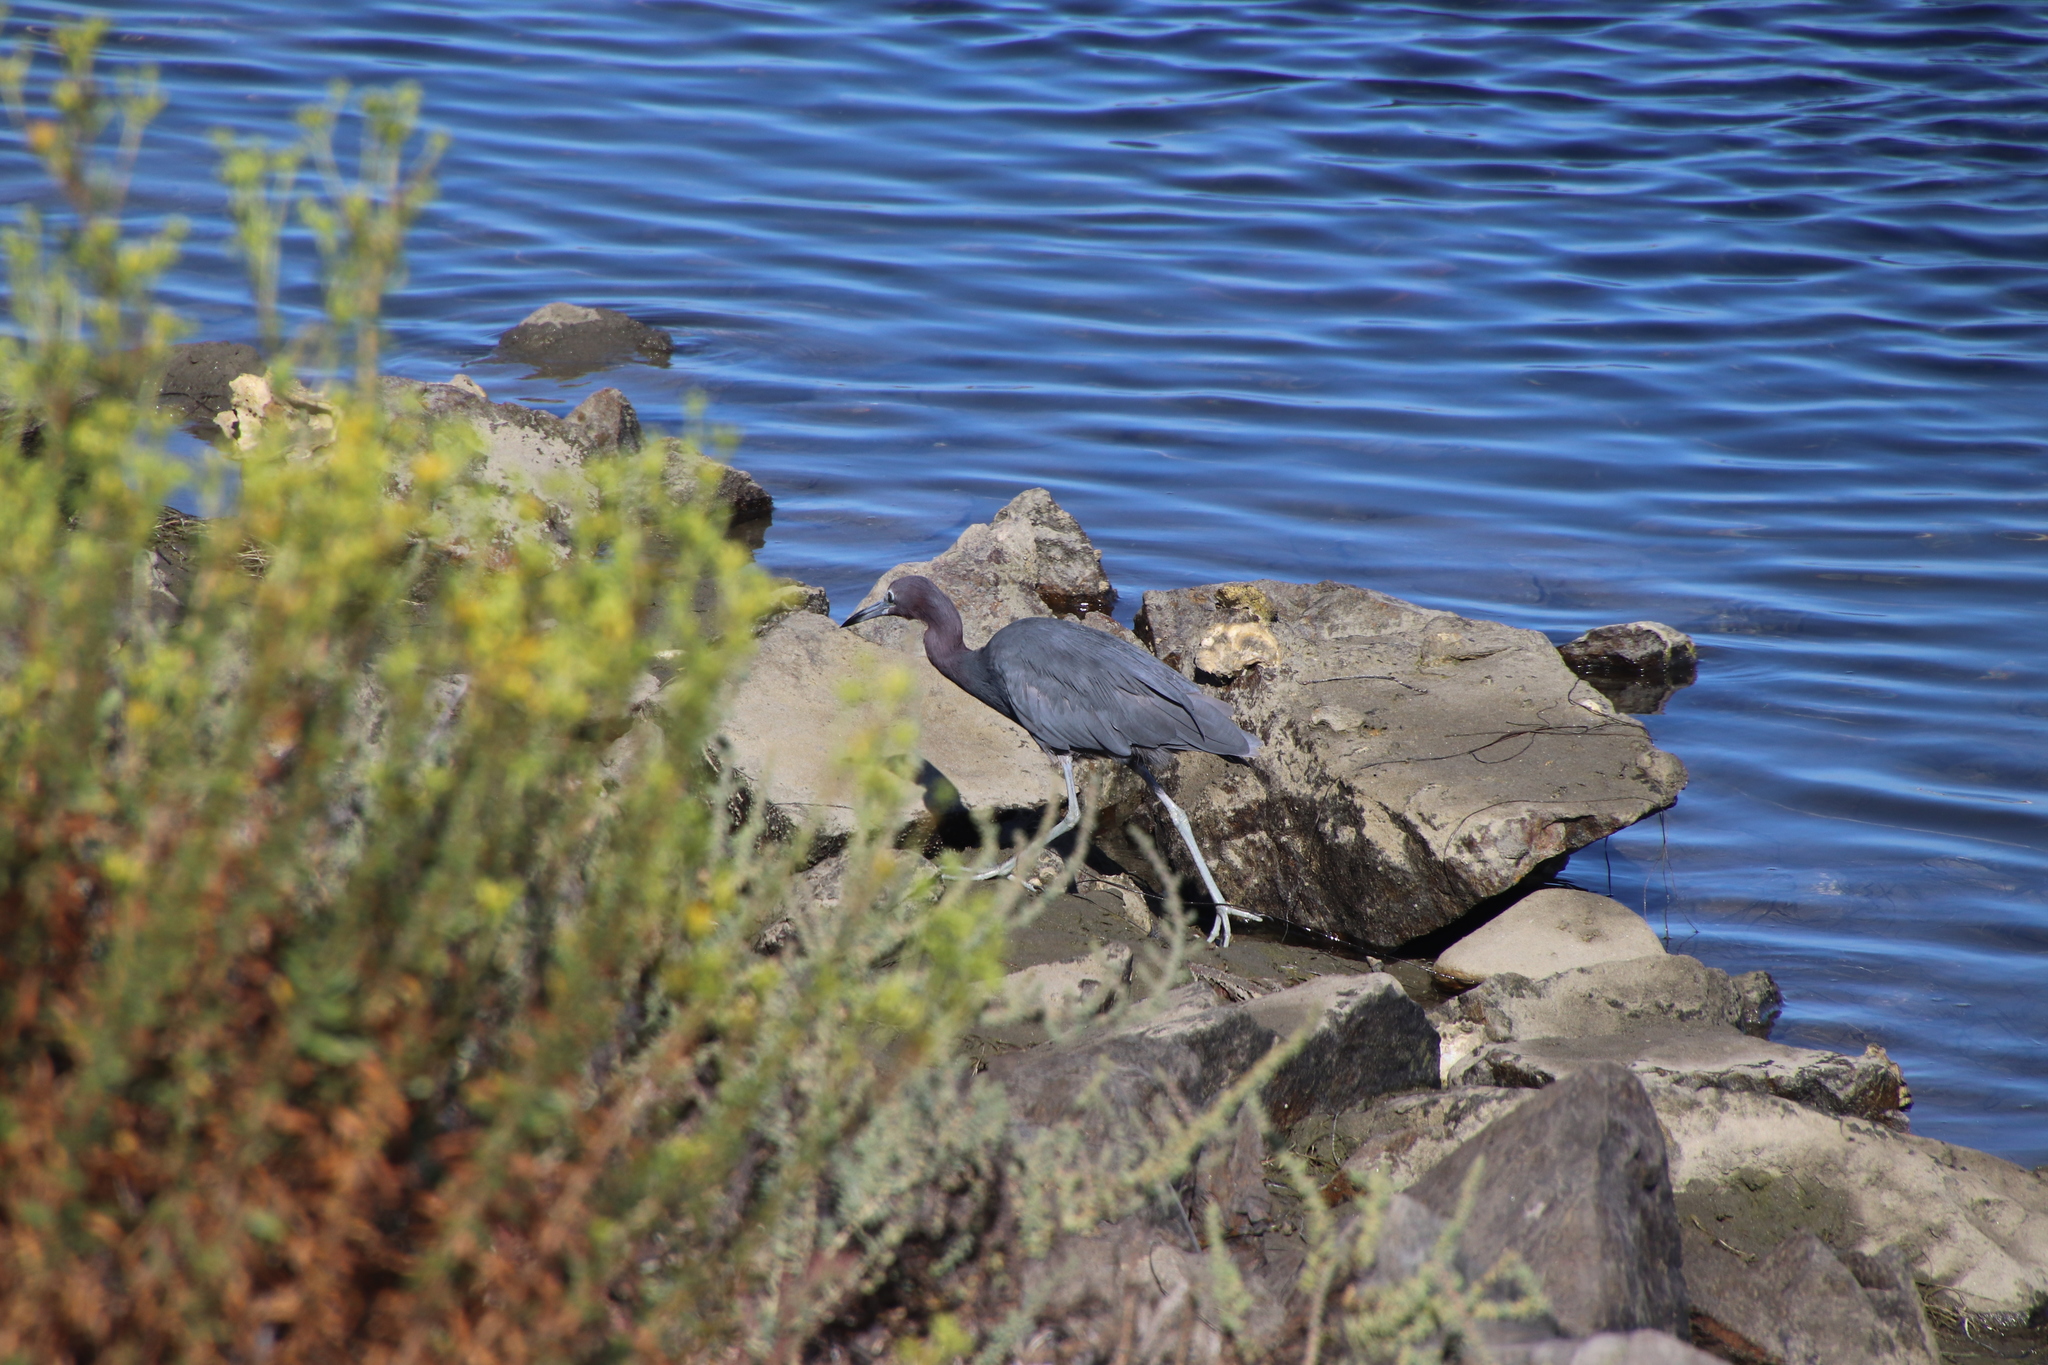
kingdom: Animalia
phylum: Chordata
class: Aves
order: Pelecaniformes
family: Ardeidae
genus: Egretta
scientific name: Egretta caerulea
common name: Little blue heron
